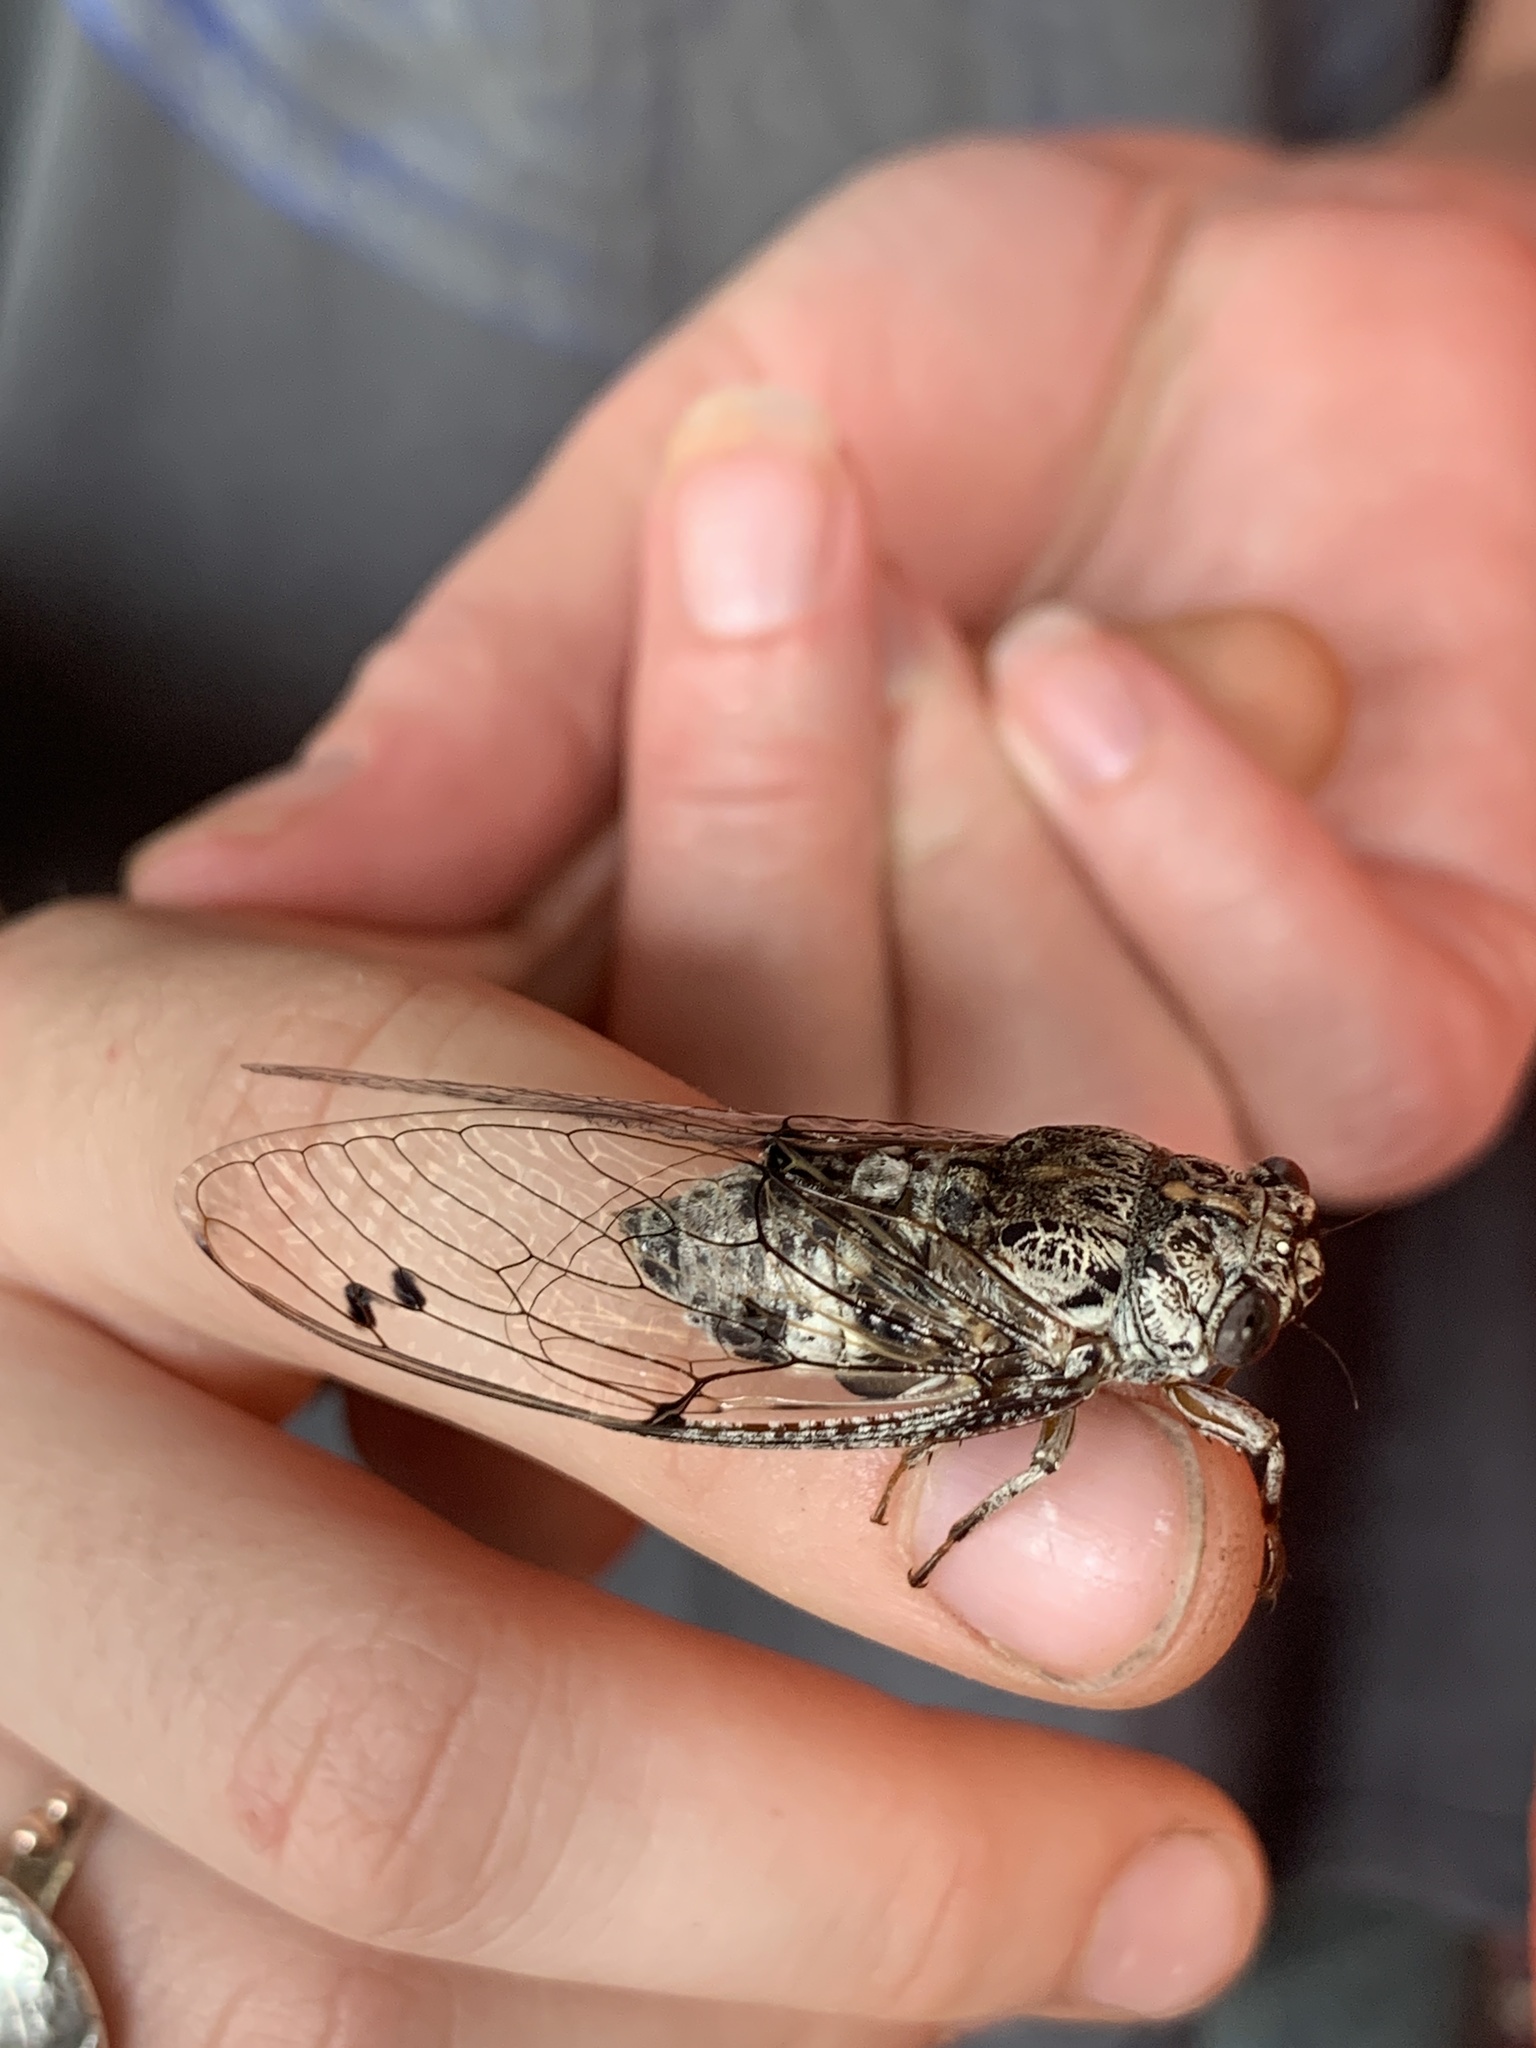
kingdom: Animalia
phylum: Arthropoda
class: Insecta
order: Hemiptera
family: Cicadidae
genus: Aleeta
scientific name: Aleeta curvicosta
